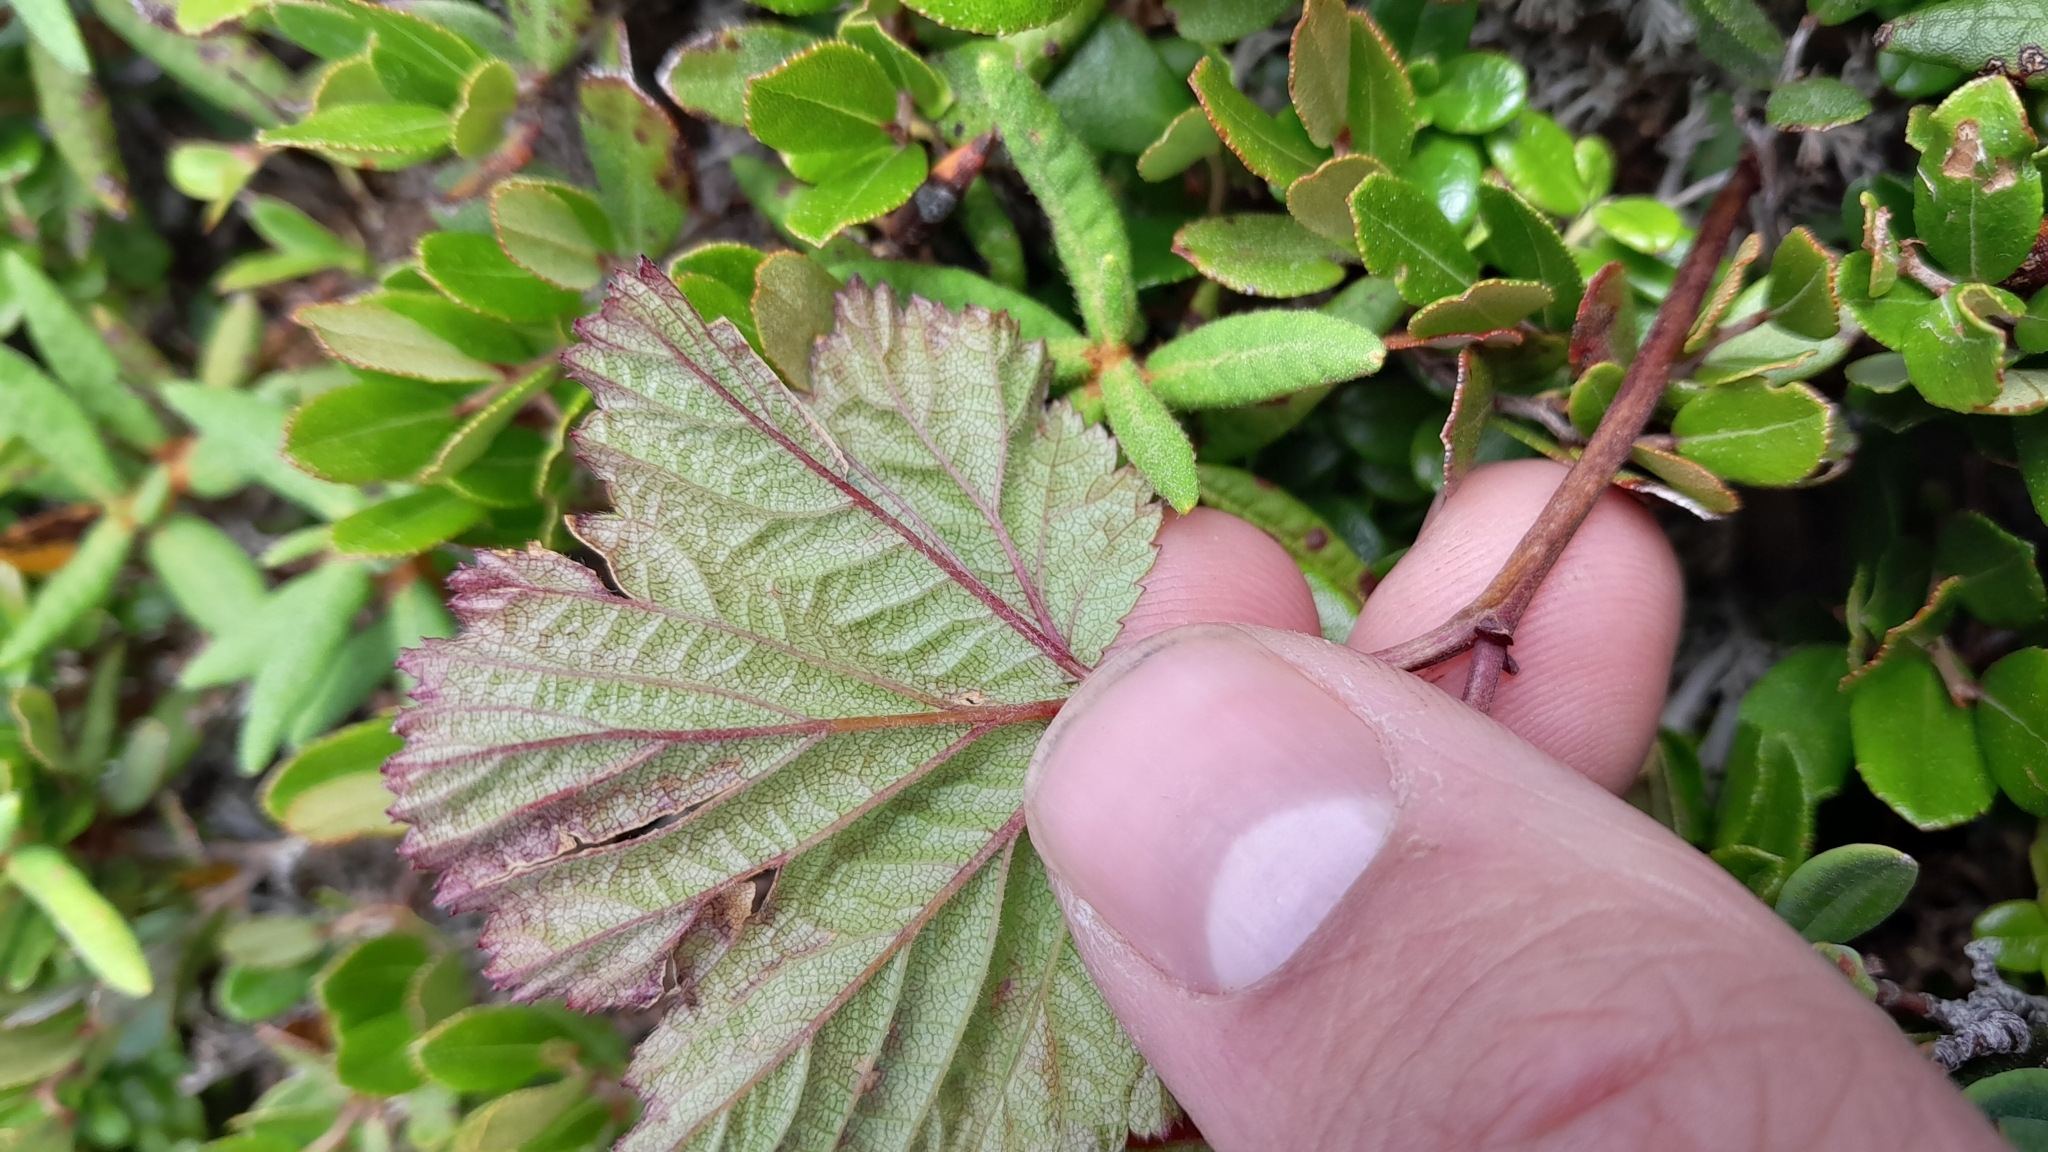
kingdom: Plantae
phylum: Tracheophyta
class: Magnoliopsida
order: Rosales
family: Rosaceae
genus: Rubus
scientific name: Rubus chamaemorus
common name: Cloudberry
